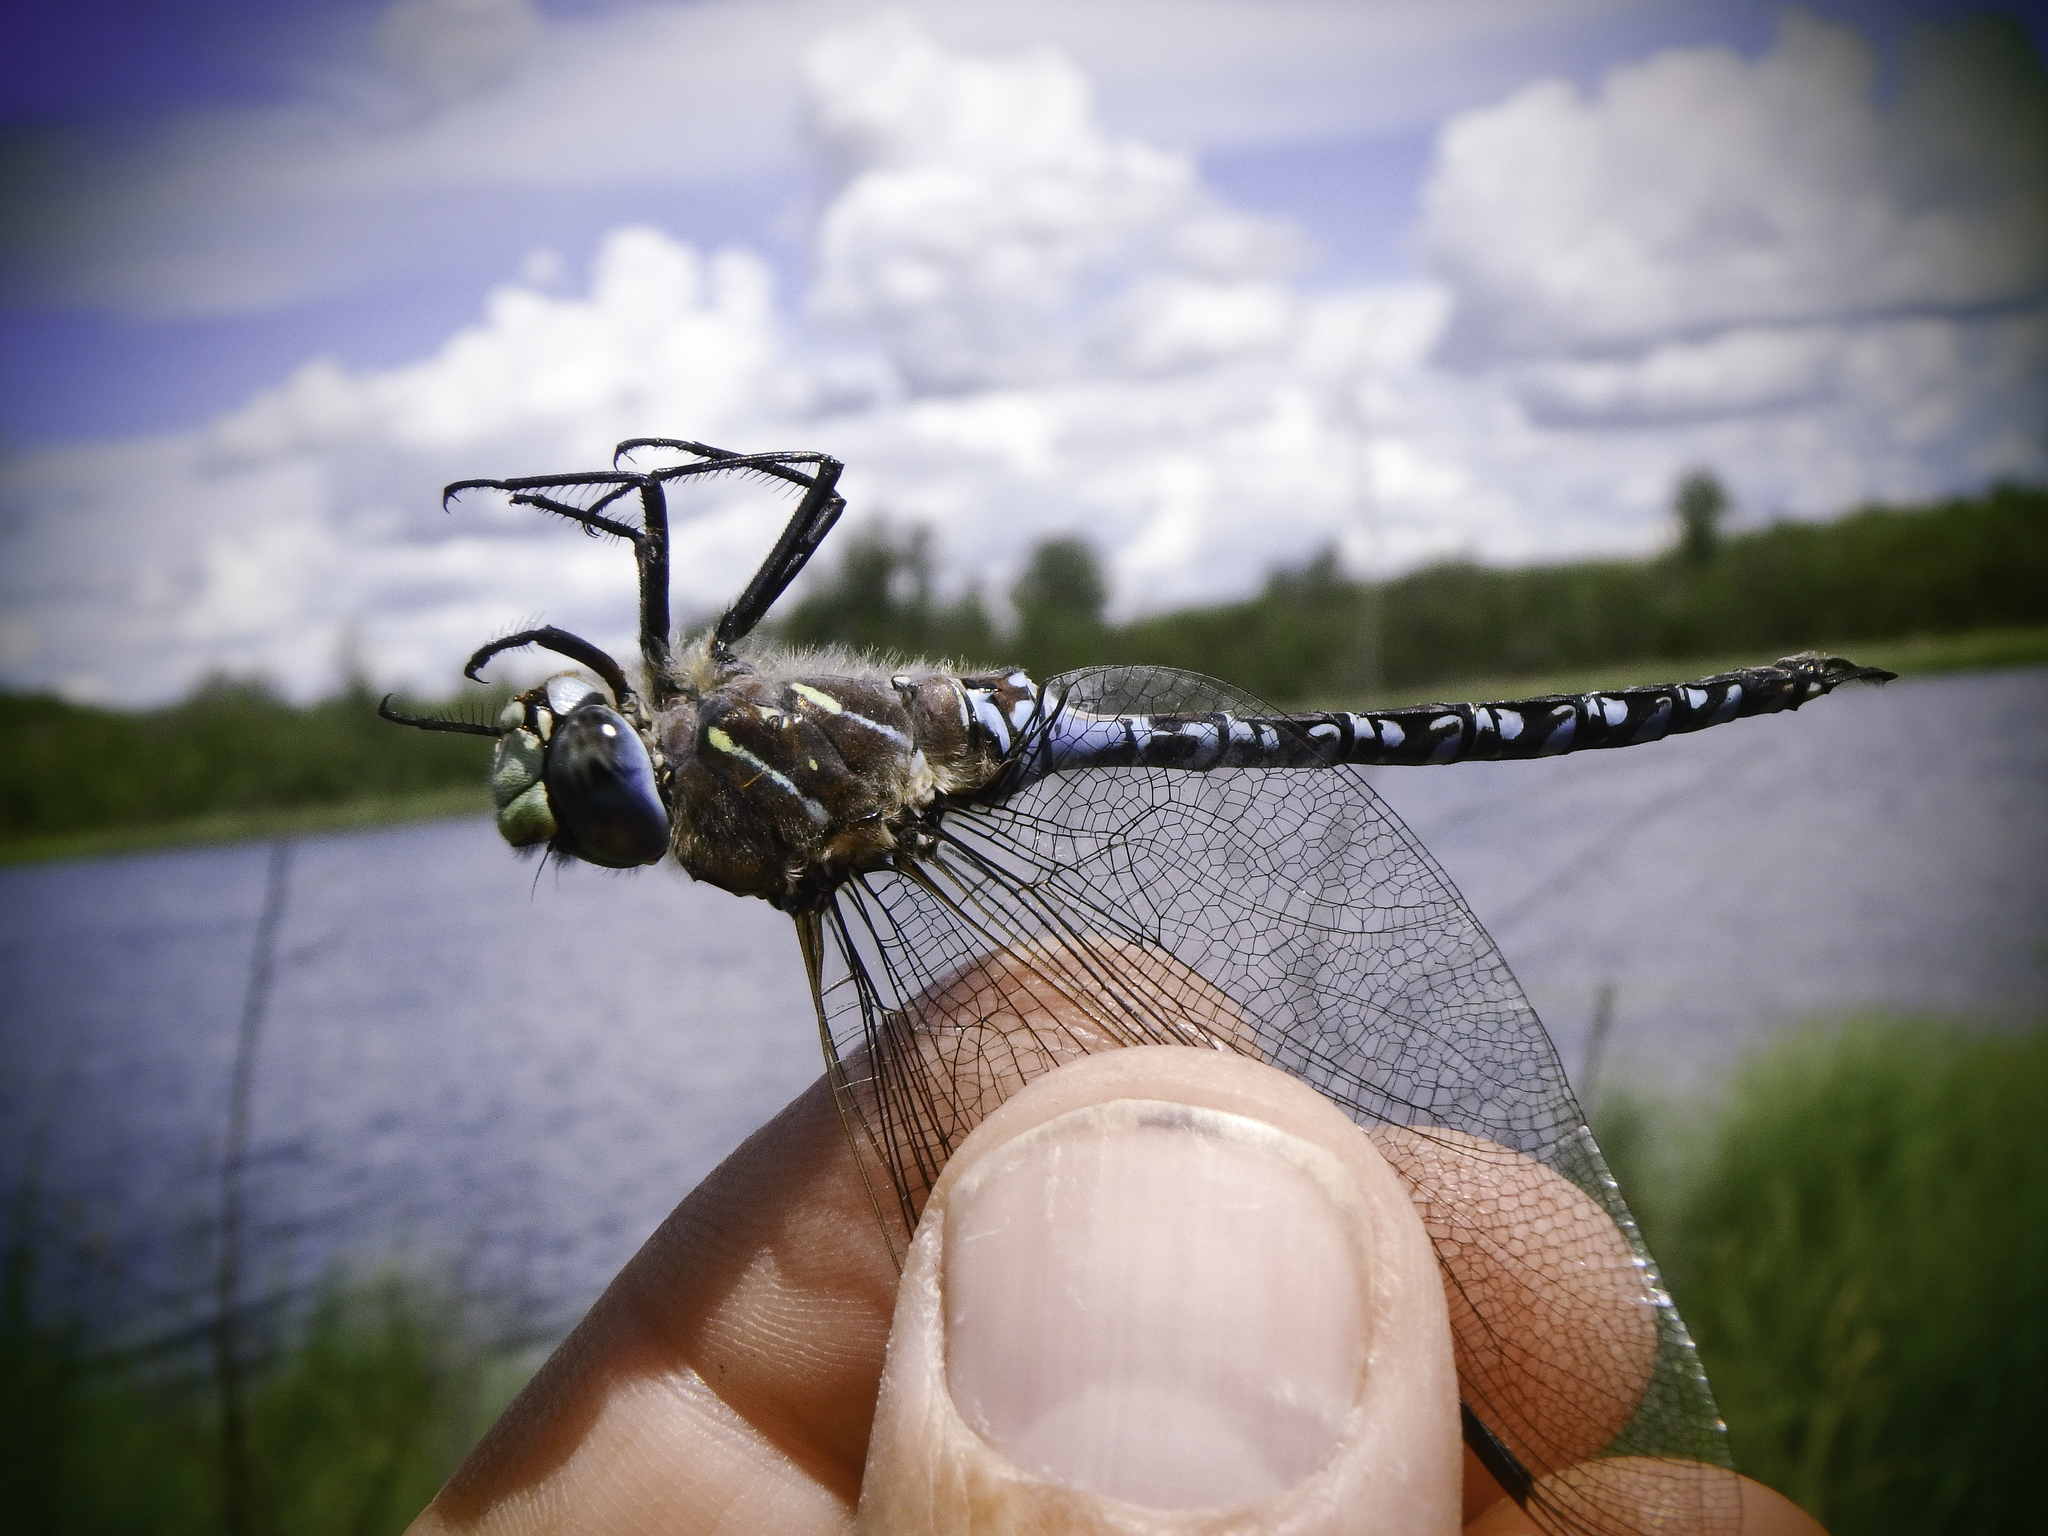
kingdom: Animalia
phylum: Arthropoda
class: Insecta
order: Odonata
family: Aeshnidae
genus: Aeshna
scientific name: Aeshna interrupta
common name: Variable darner
